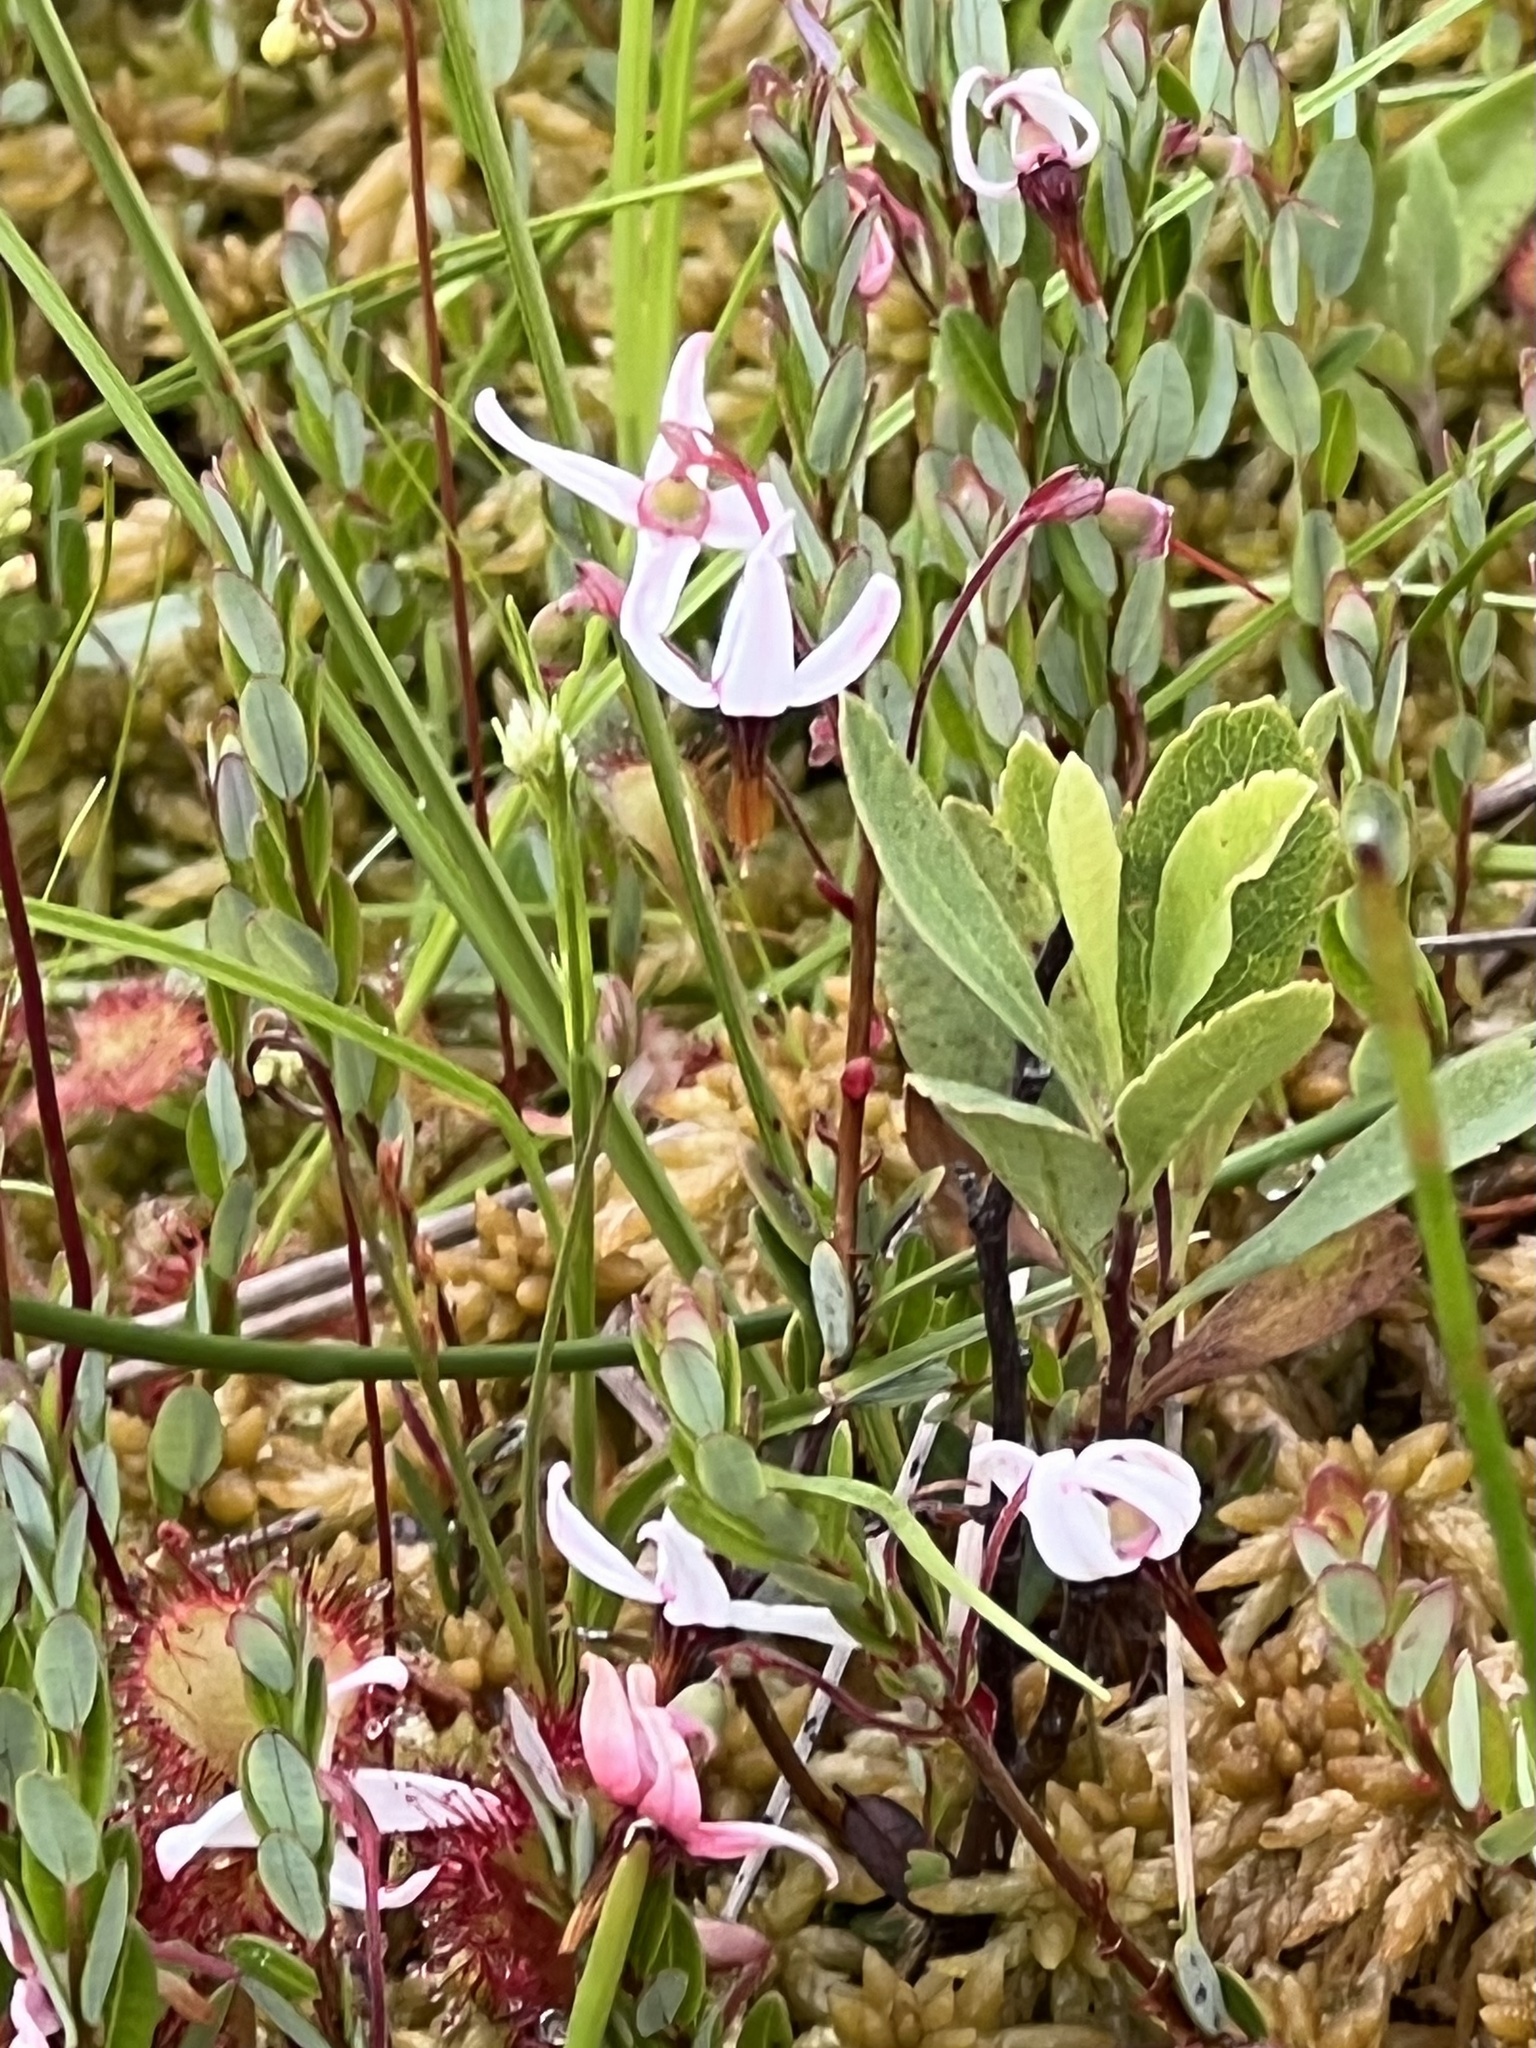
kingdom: Plantae
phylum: Tracheophyta
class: Magnoliopsida
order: Ericales
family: Ericaceae
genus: Vaccinium
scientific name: Vaccinium macrocarpon
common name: American cranberry
